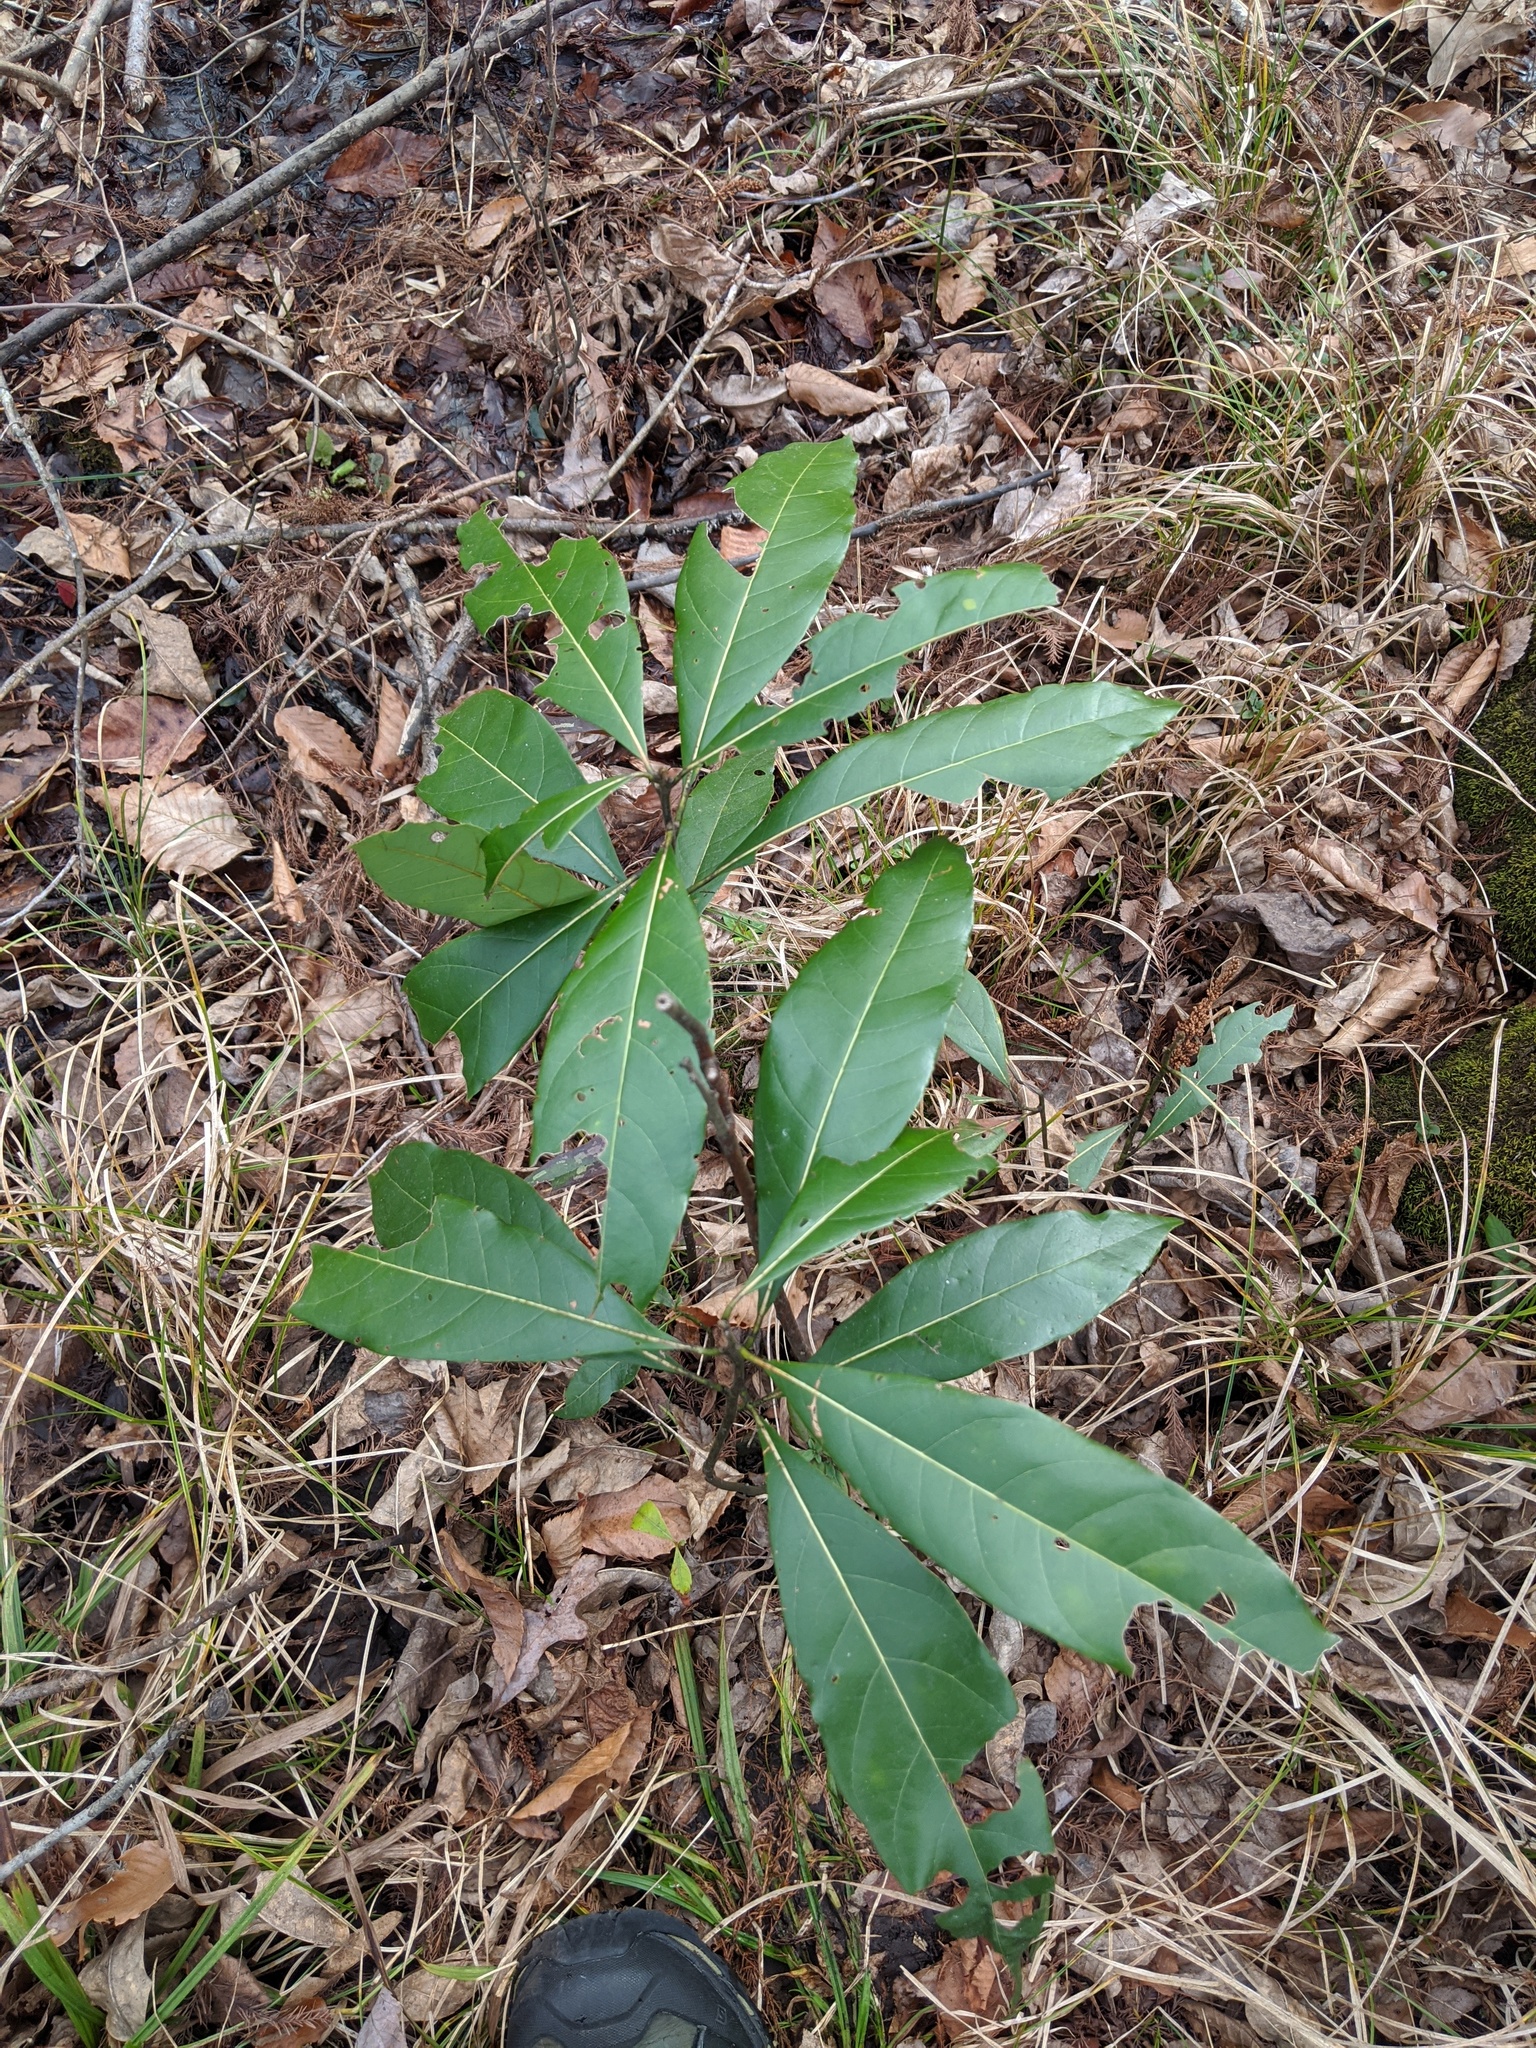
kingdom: Plantae
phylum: Tracheophyta
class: Magnoliopsida
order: Laurales
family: Lauraceae
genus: Persea
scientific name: Persea palustris
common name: Swampbay
